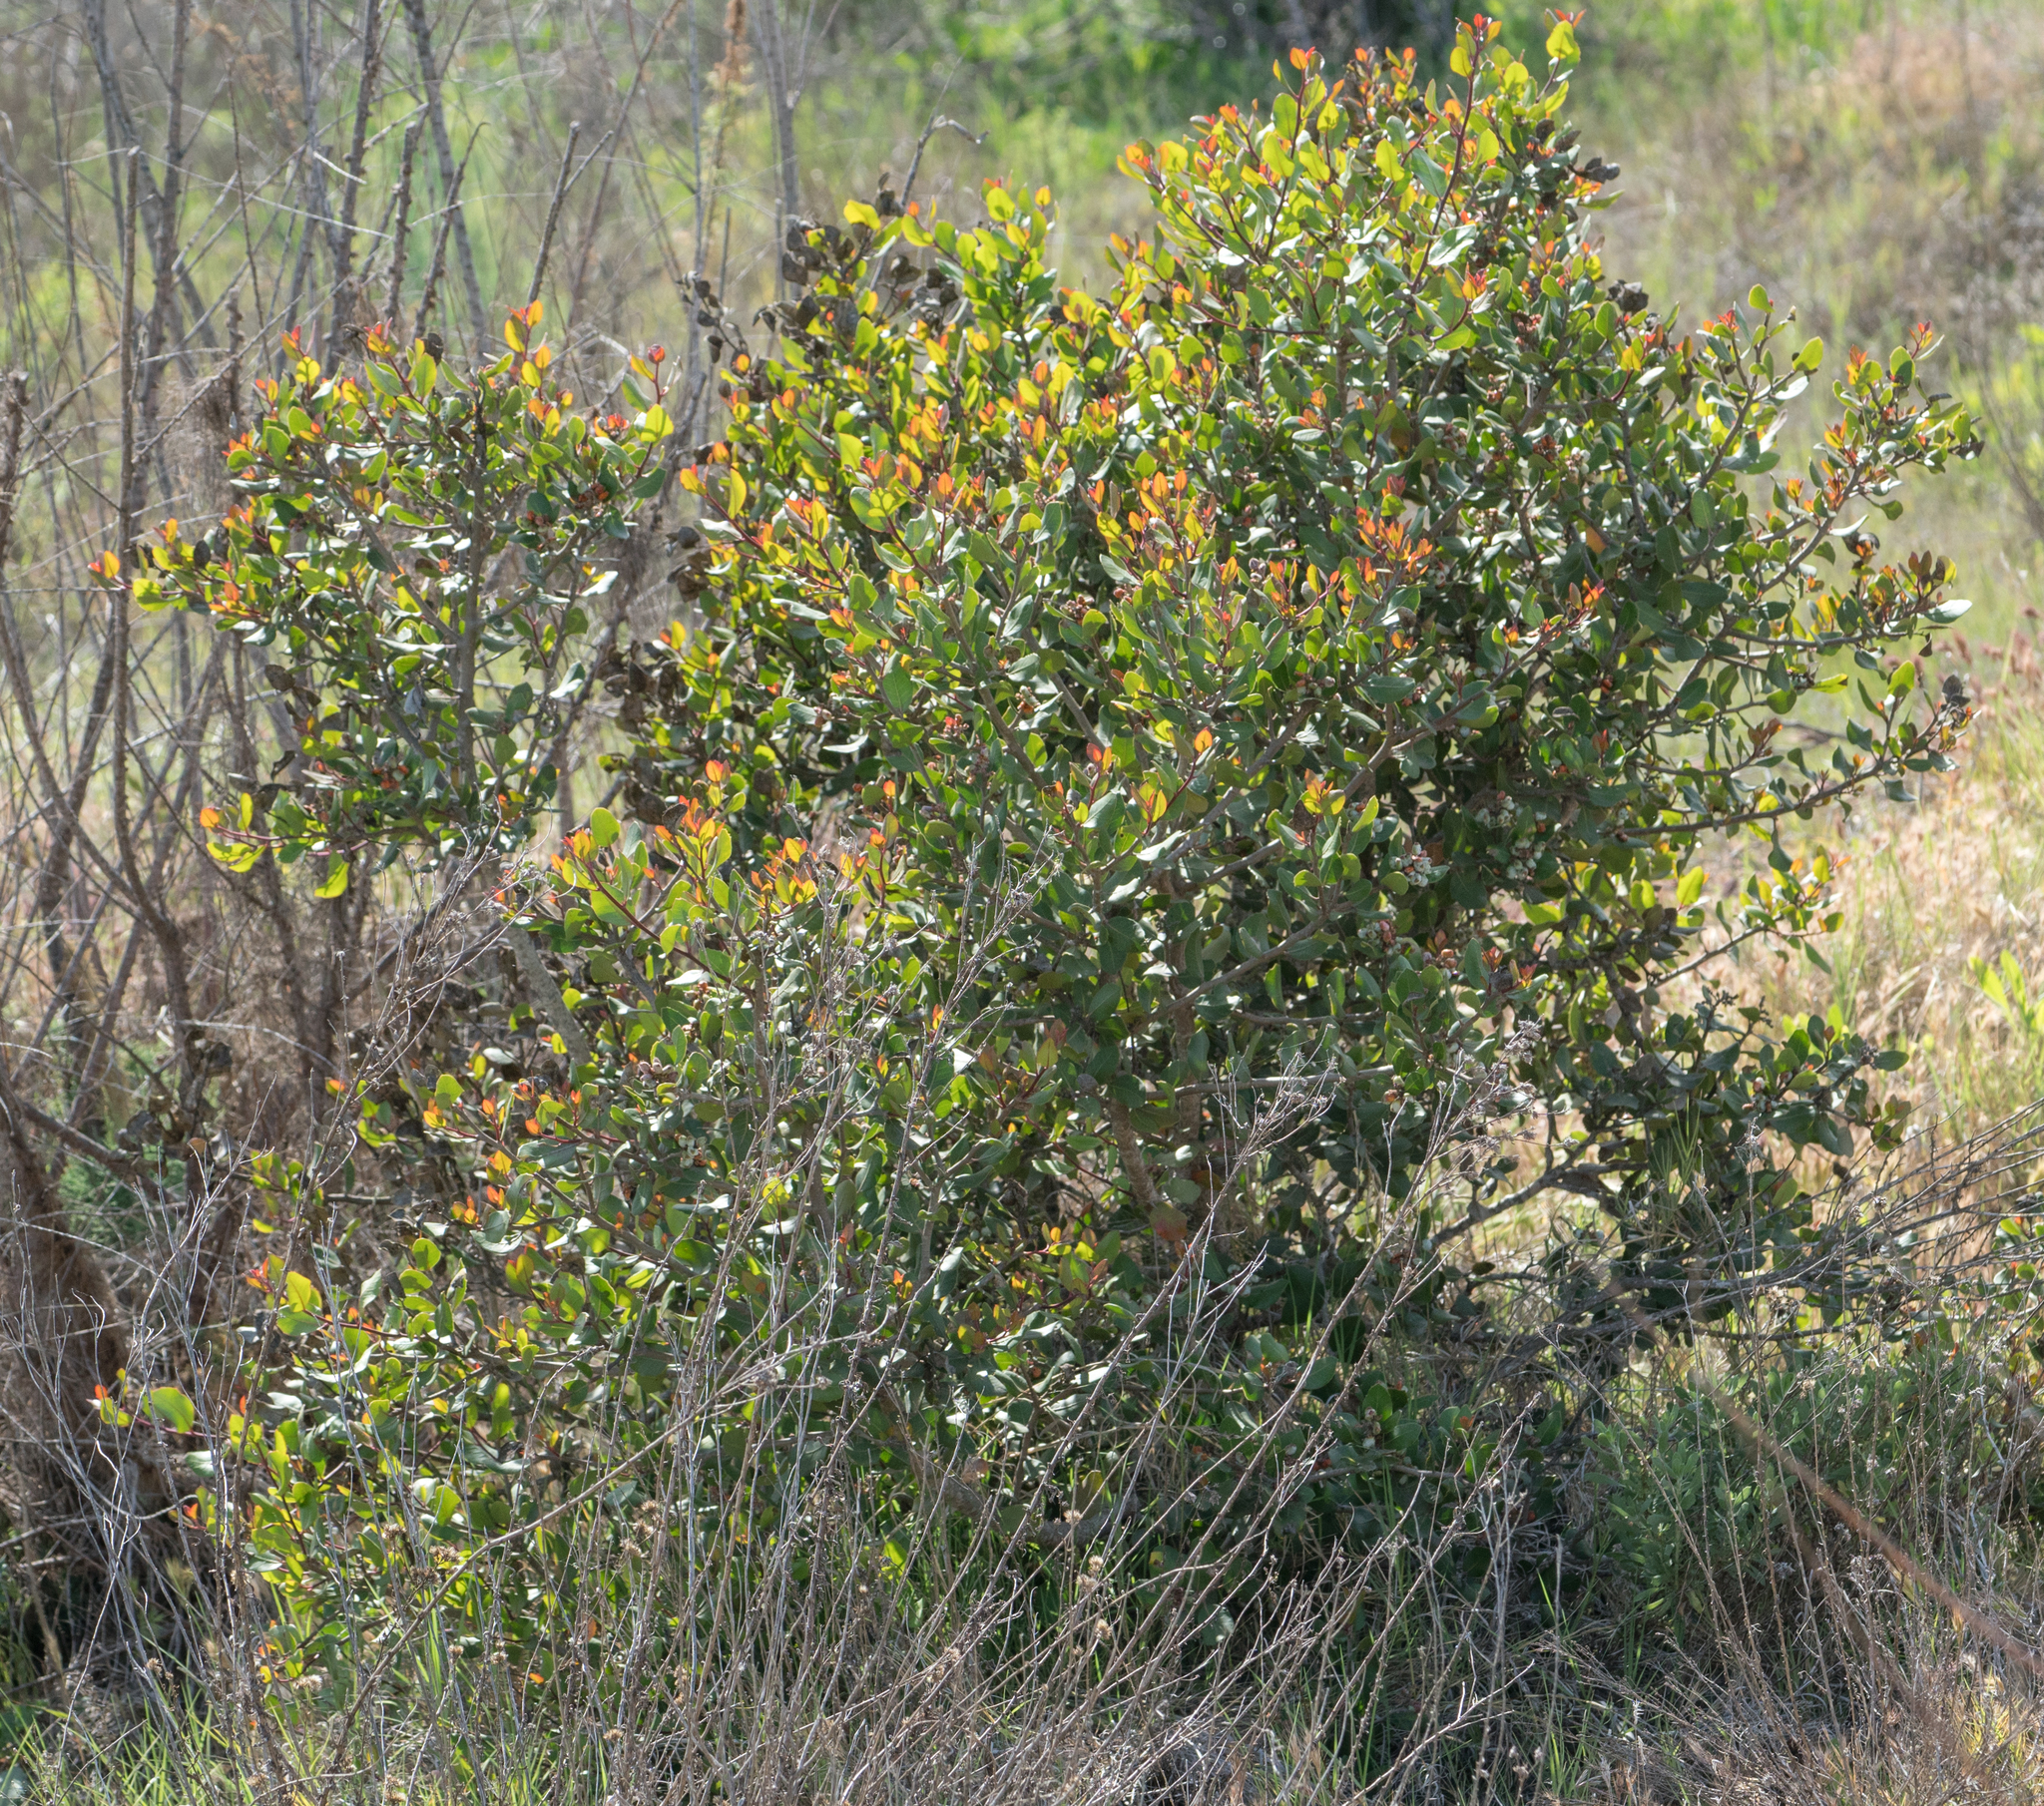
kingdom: Plantae
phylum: Tracheophyta
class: Magnoliopsida
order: Sapindales
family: Anacardiaceae
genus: Rhus
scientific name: Rhus integrifolia
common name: Lemonade sumac
